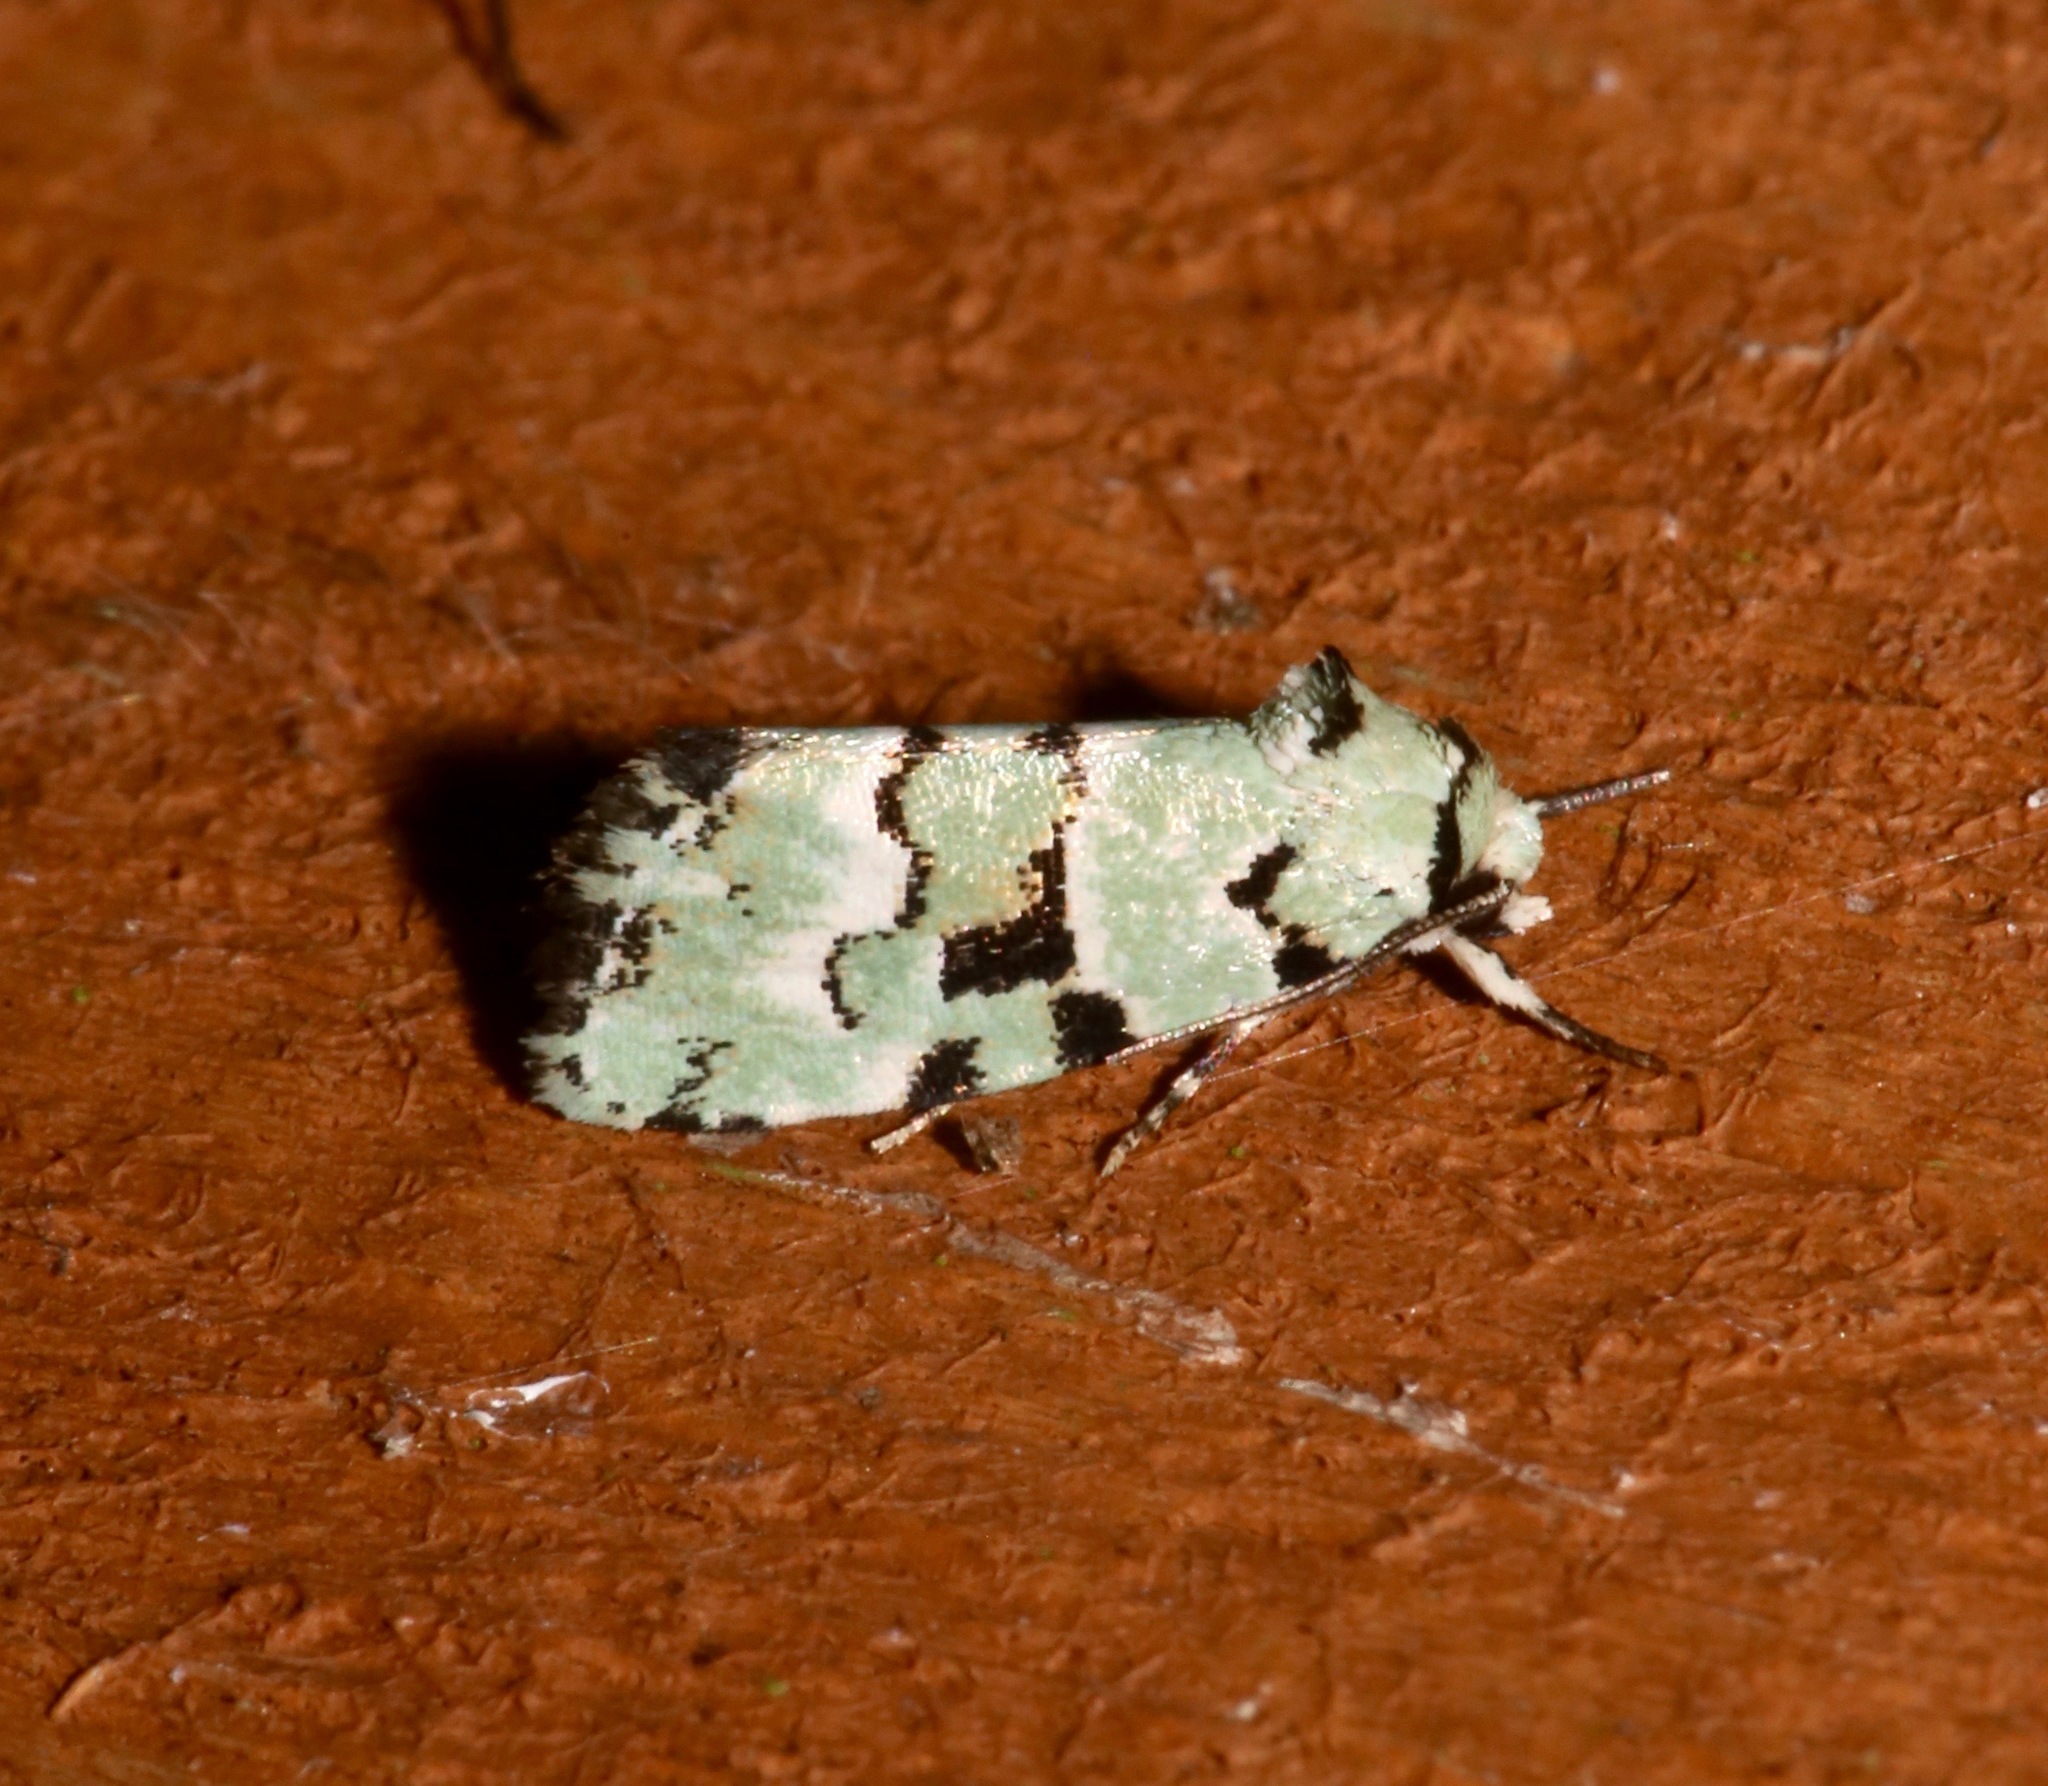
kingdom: Animalia
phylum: Arthropoda
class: Insecta
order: Lepidoptera
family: Noctuidae
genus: Elaphria
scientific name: Elaphria cyanympha
